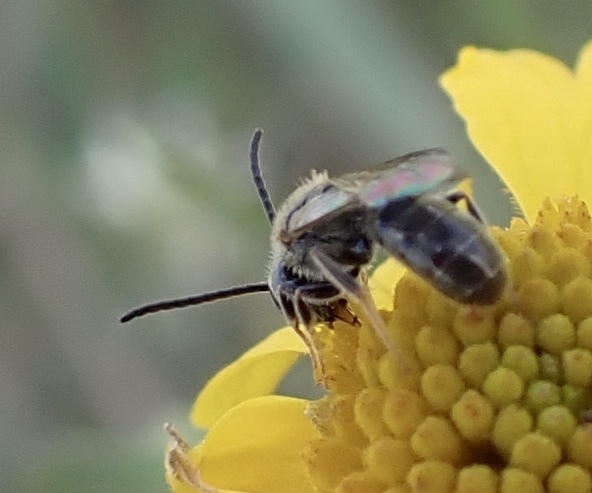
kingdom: Animalia
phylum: Arthropoda
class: Insecta
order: Hymenoptera
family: Halictidae
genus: Dialictus
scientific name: Dialictus
